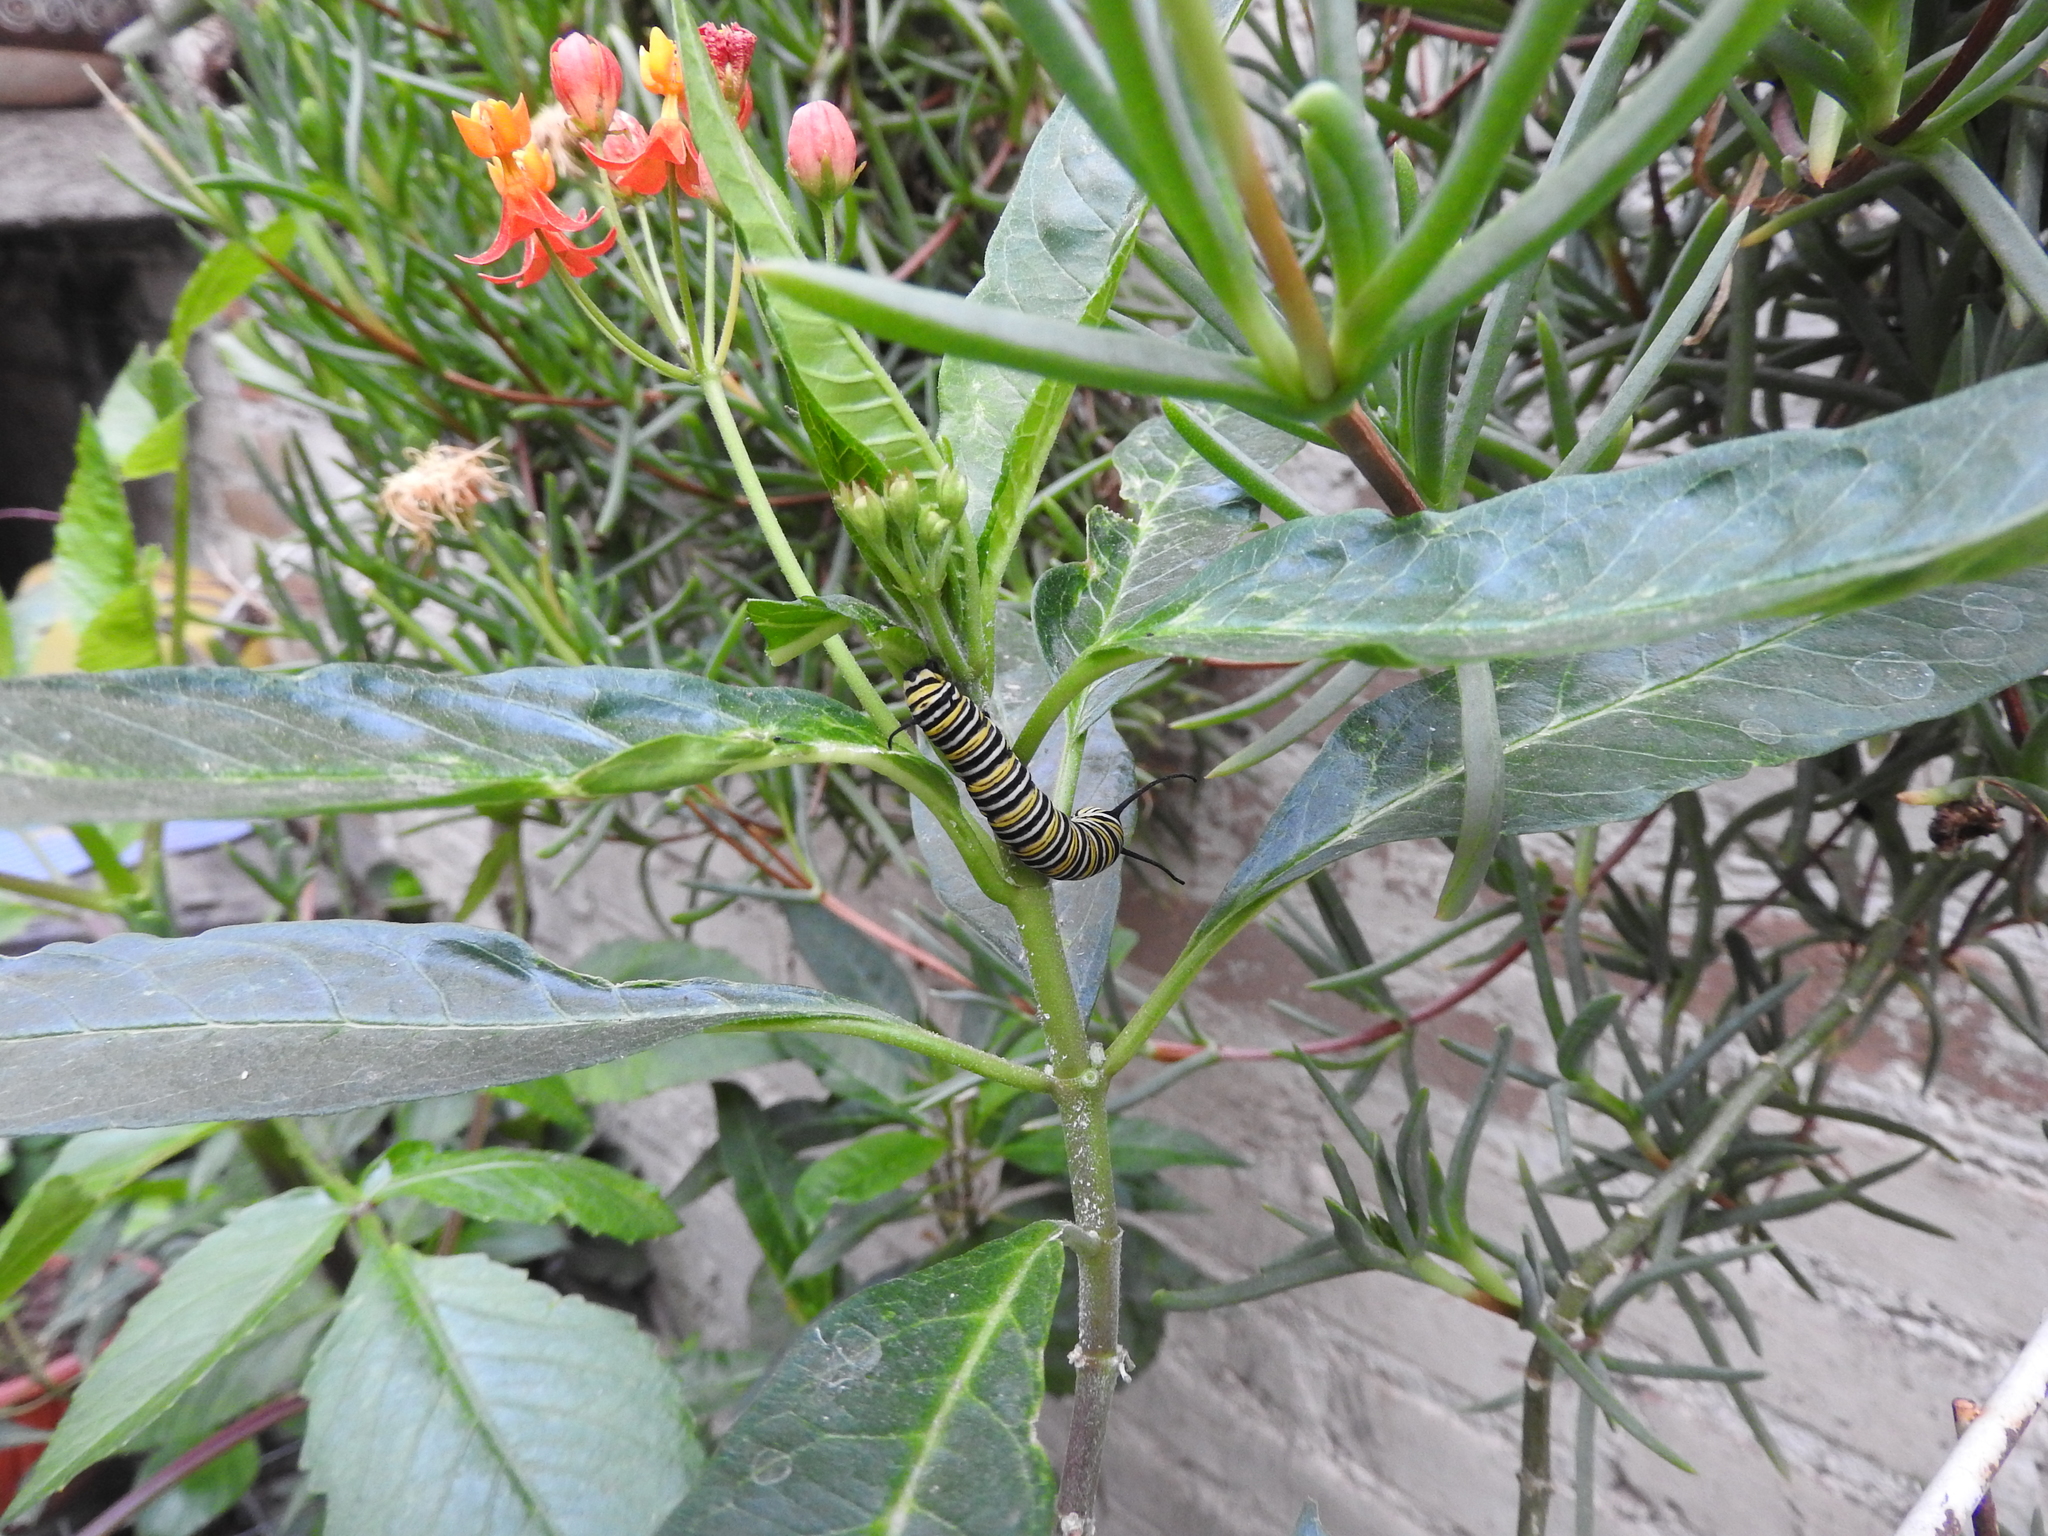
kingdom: Animalia
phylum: Arthropoda
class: Insecta
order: Lepidoptera
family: Nymphalidae
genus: Danaus
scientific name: Danaus plexippus
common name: Monarch
